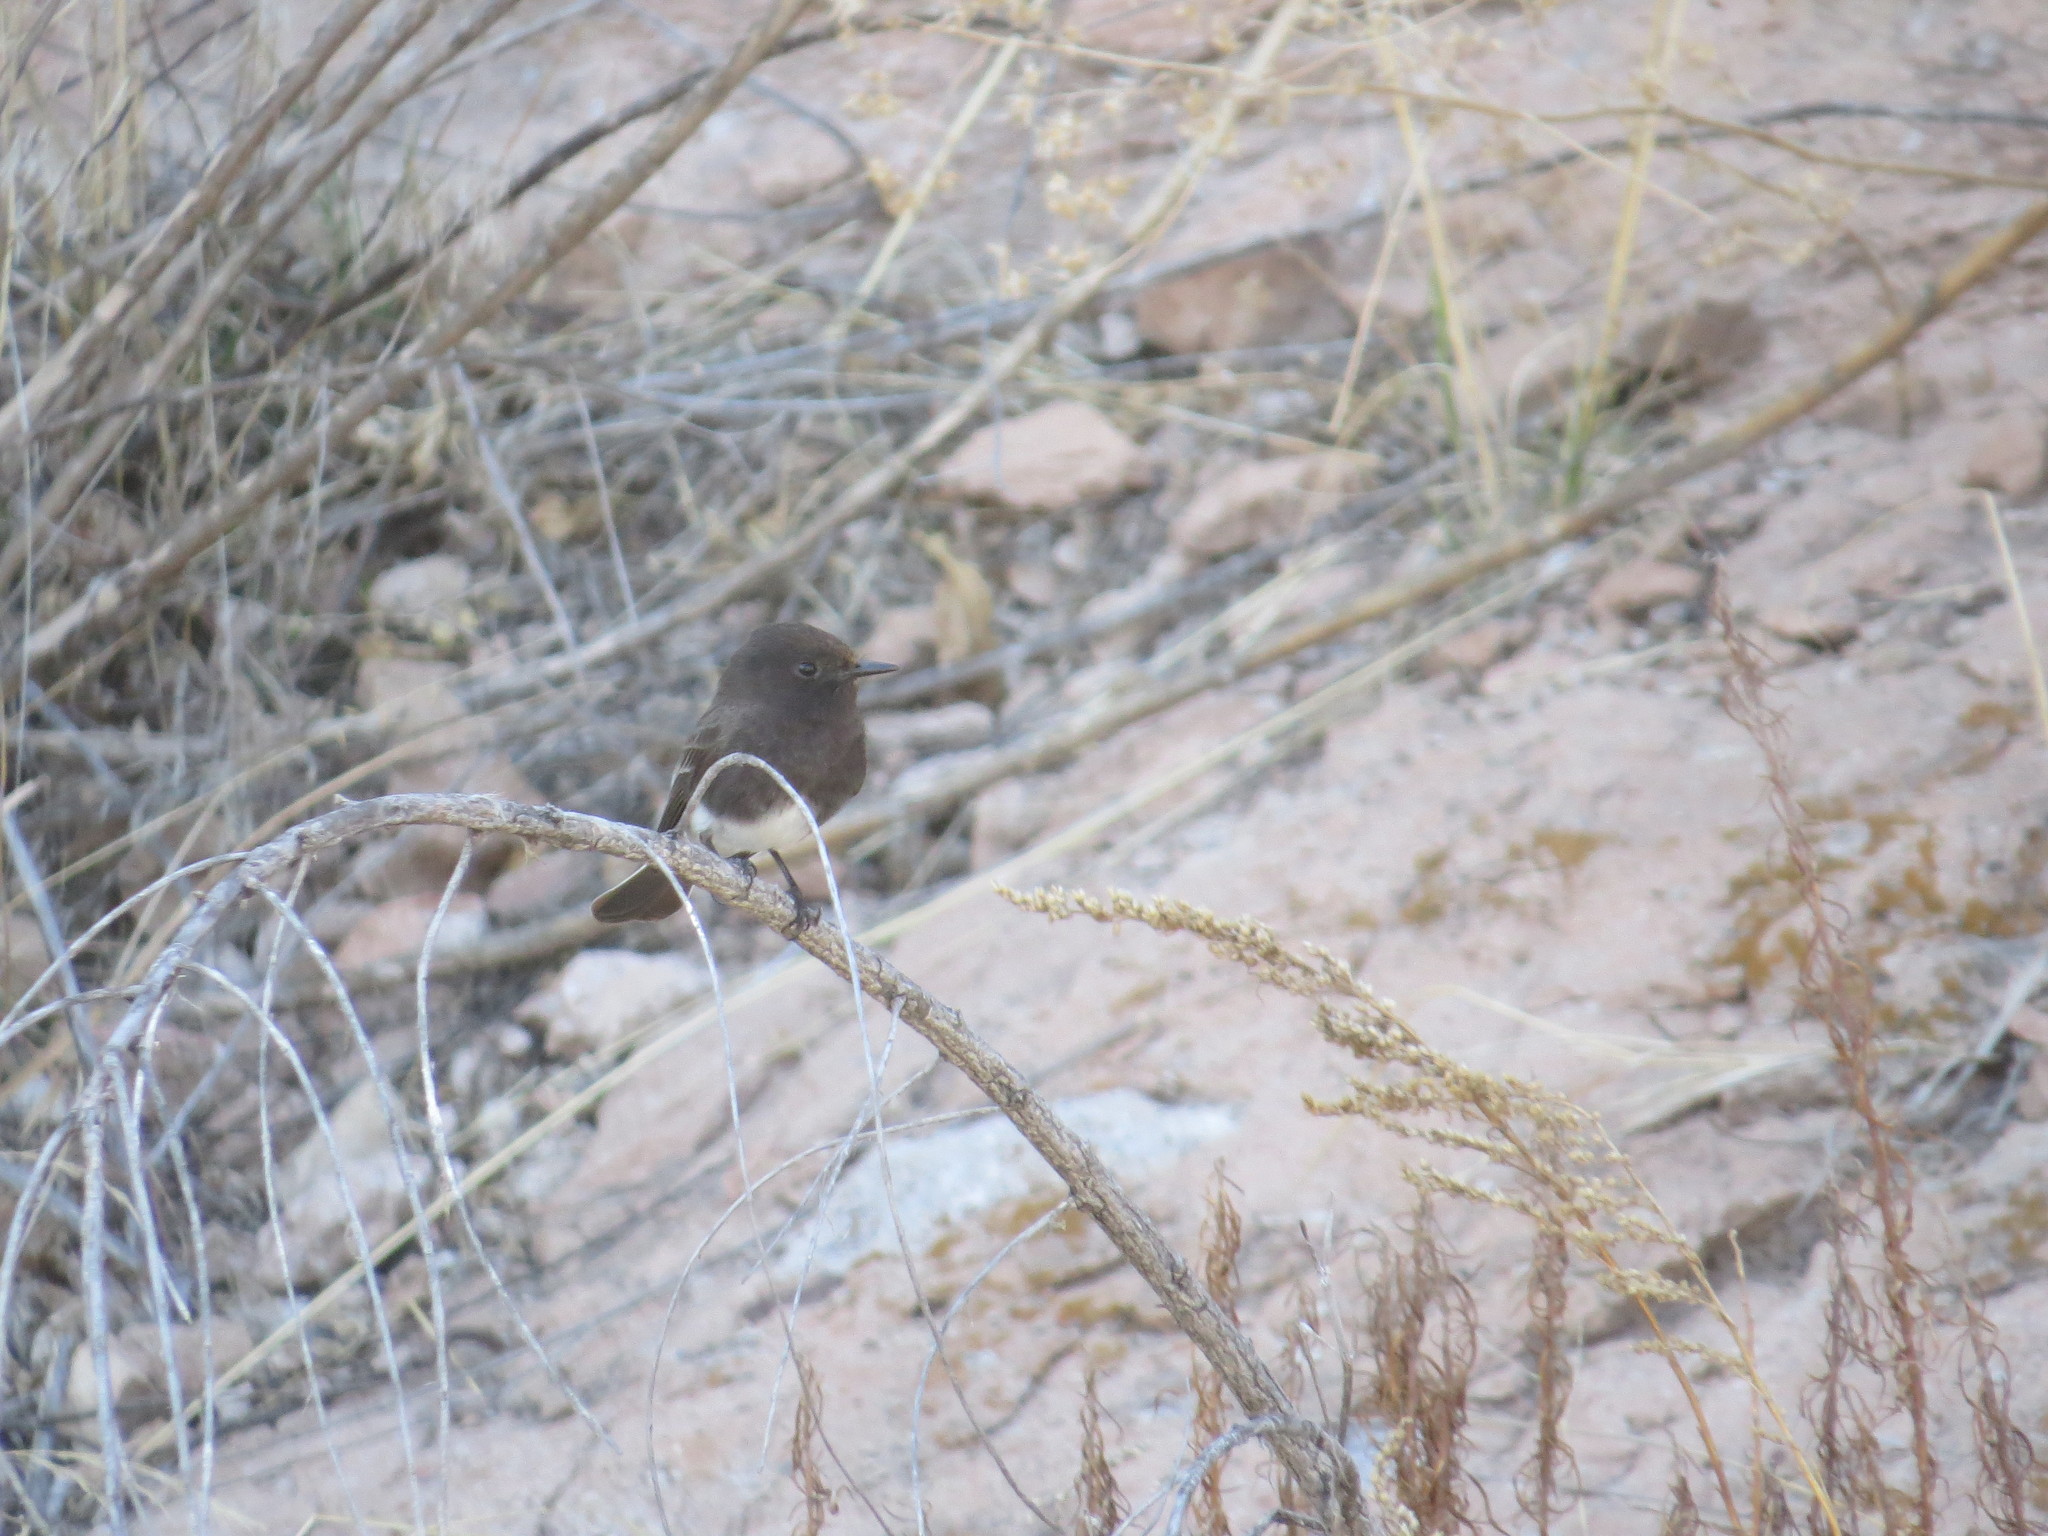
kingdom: Animalia
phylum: Chordata
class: Aves
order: Passeriformes
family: Tyrannidae
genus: Sayornis
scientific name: Sayornis nigricans
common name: Black phoebe
